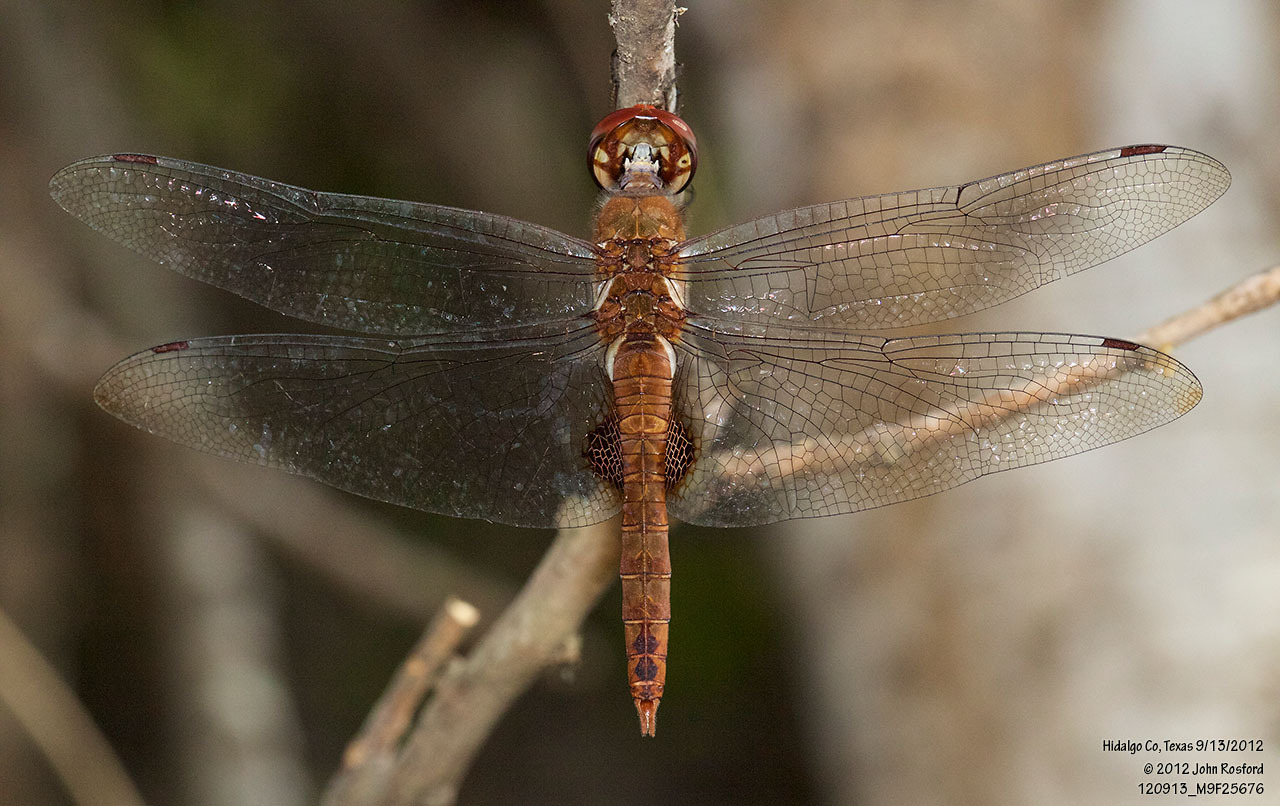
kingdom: Animalia
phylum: Arthropoda
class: Insecta
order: Odonata
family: Libellulidae
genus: Pantala
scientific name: Pantala hymenaea
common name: Spot-winged glider
